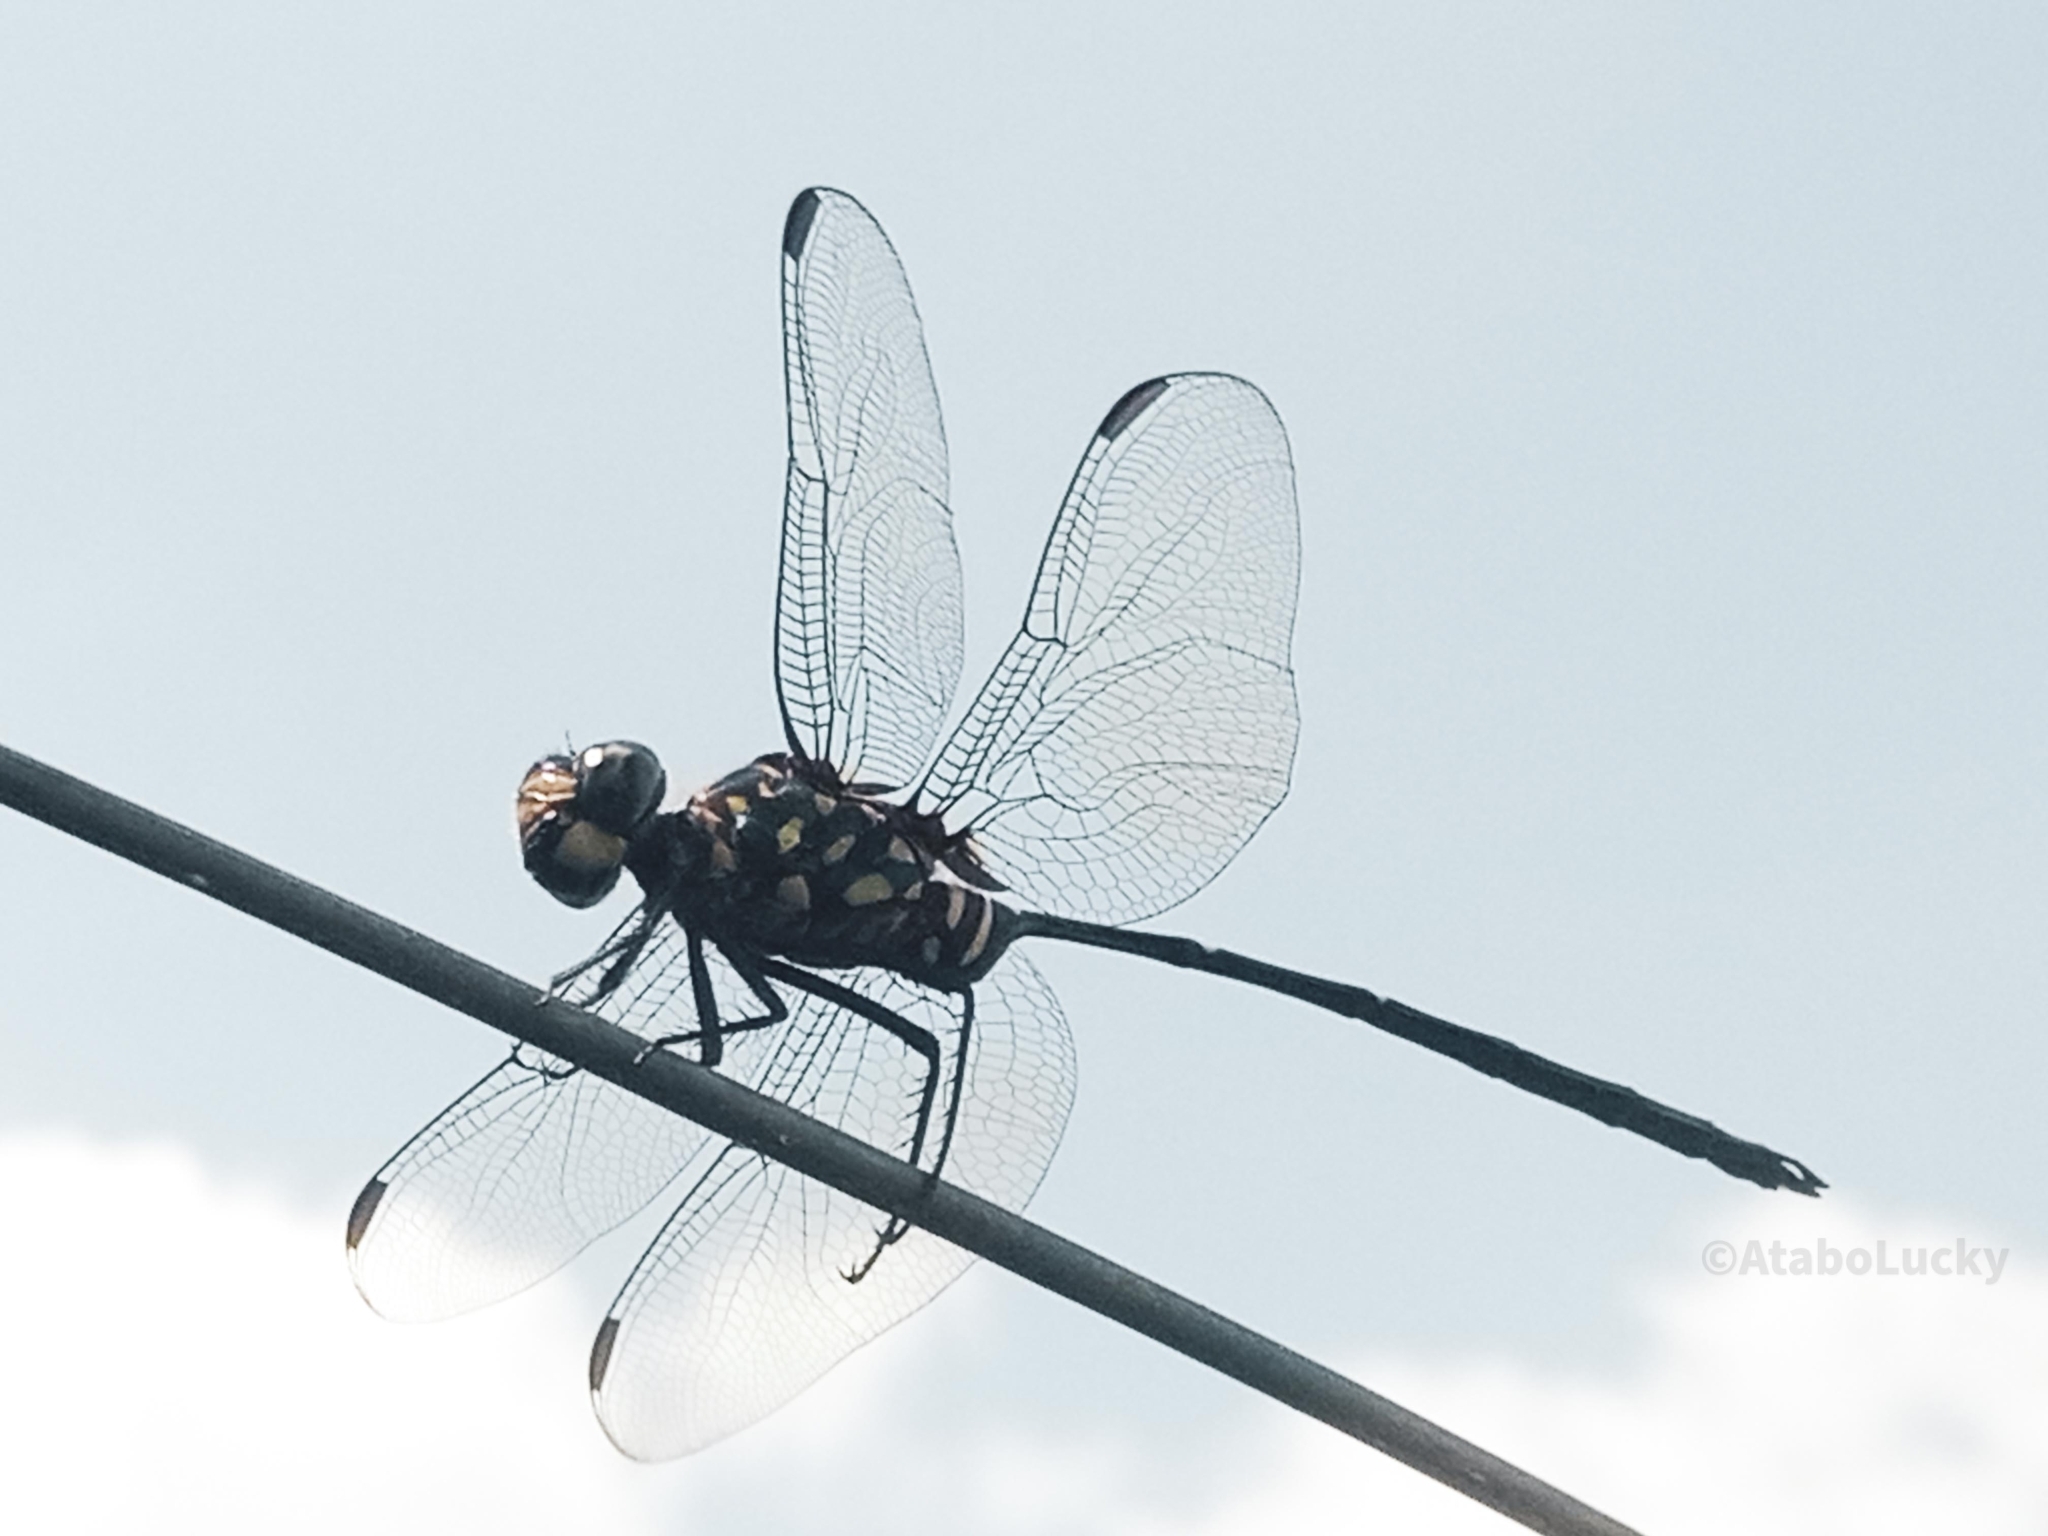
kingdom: Animalia
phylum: Arthropoda
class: Insecta
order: Odonata
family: Libellulidae
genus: Olpogastra
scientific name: Olpogastra lugubris
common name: Bottletail
